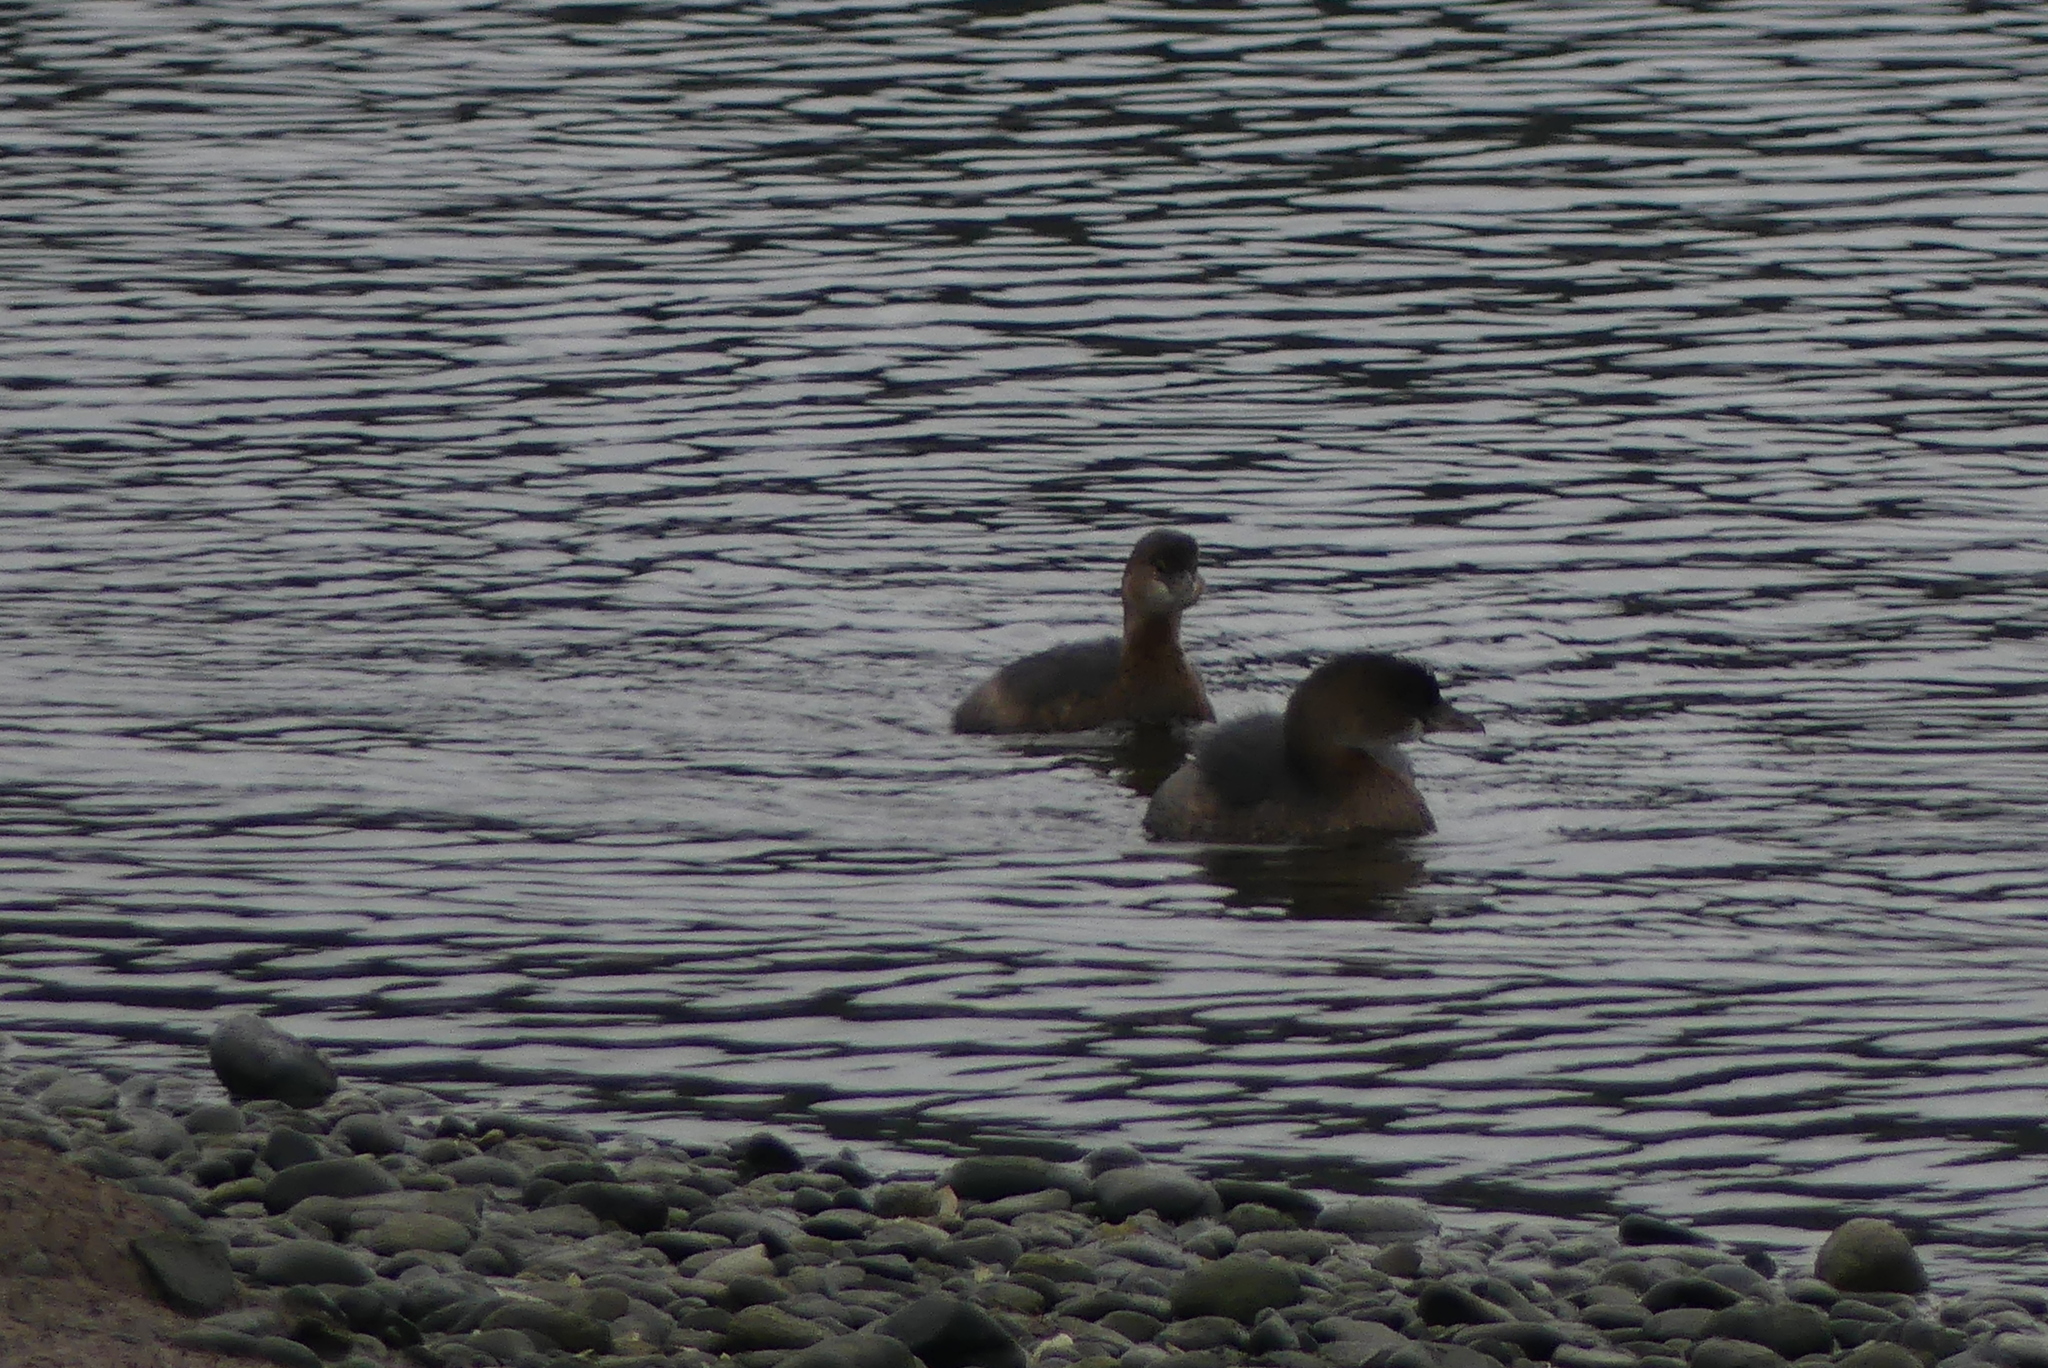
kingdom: Animalia
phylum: Chordata
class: Aves
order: Podicipediformes
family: Podicipedidae
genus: Podilymbus
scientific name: Podilymbus podiceps
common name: Pied-billed grebe
